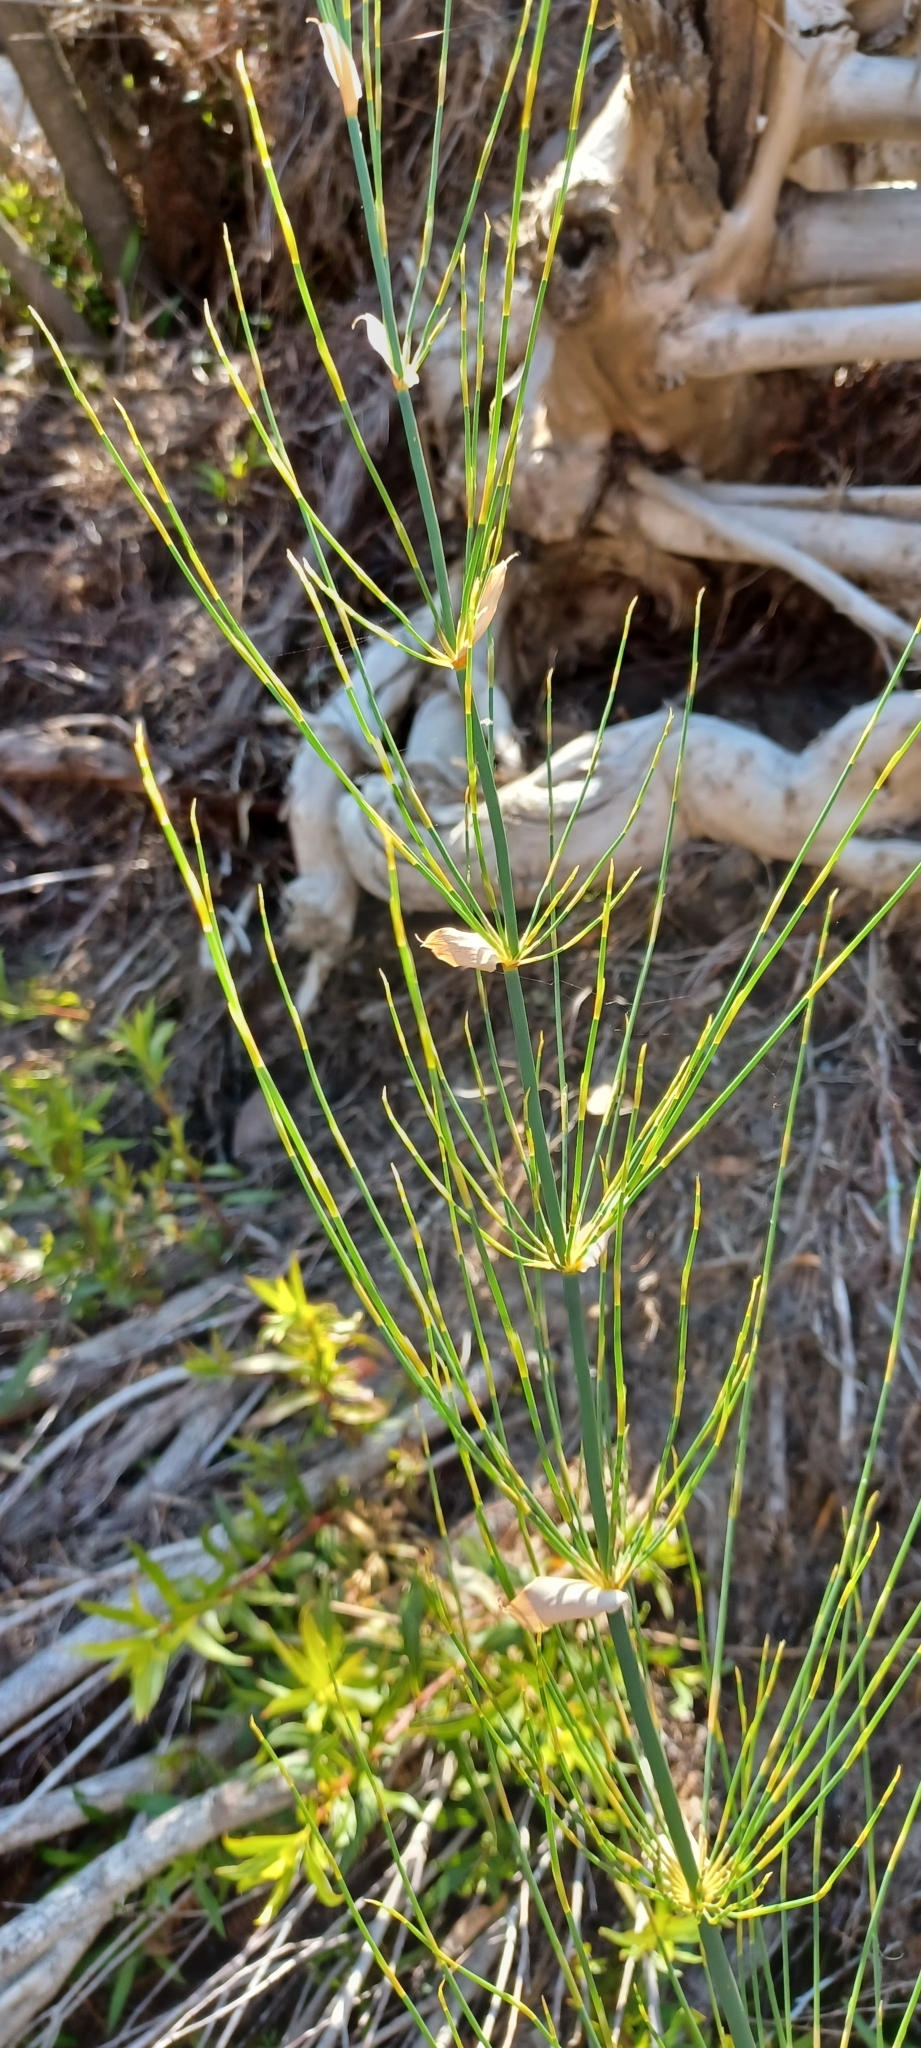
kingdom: Plantae
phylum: Tracheophyta
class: Liliopsida
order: Poales
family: Restionaceae
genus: Elegia
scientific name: Elegia capensis
